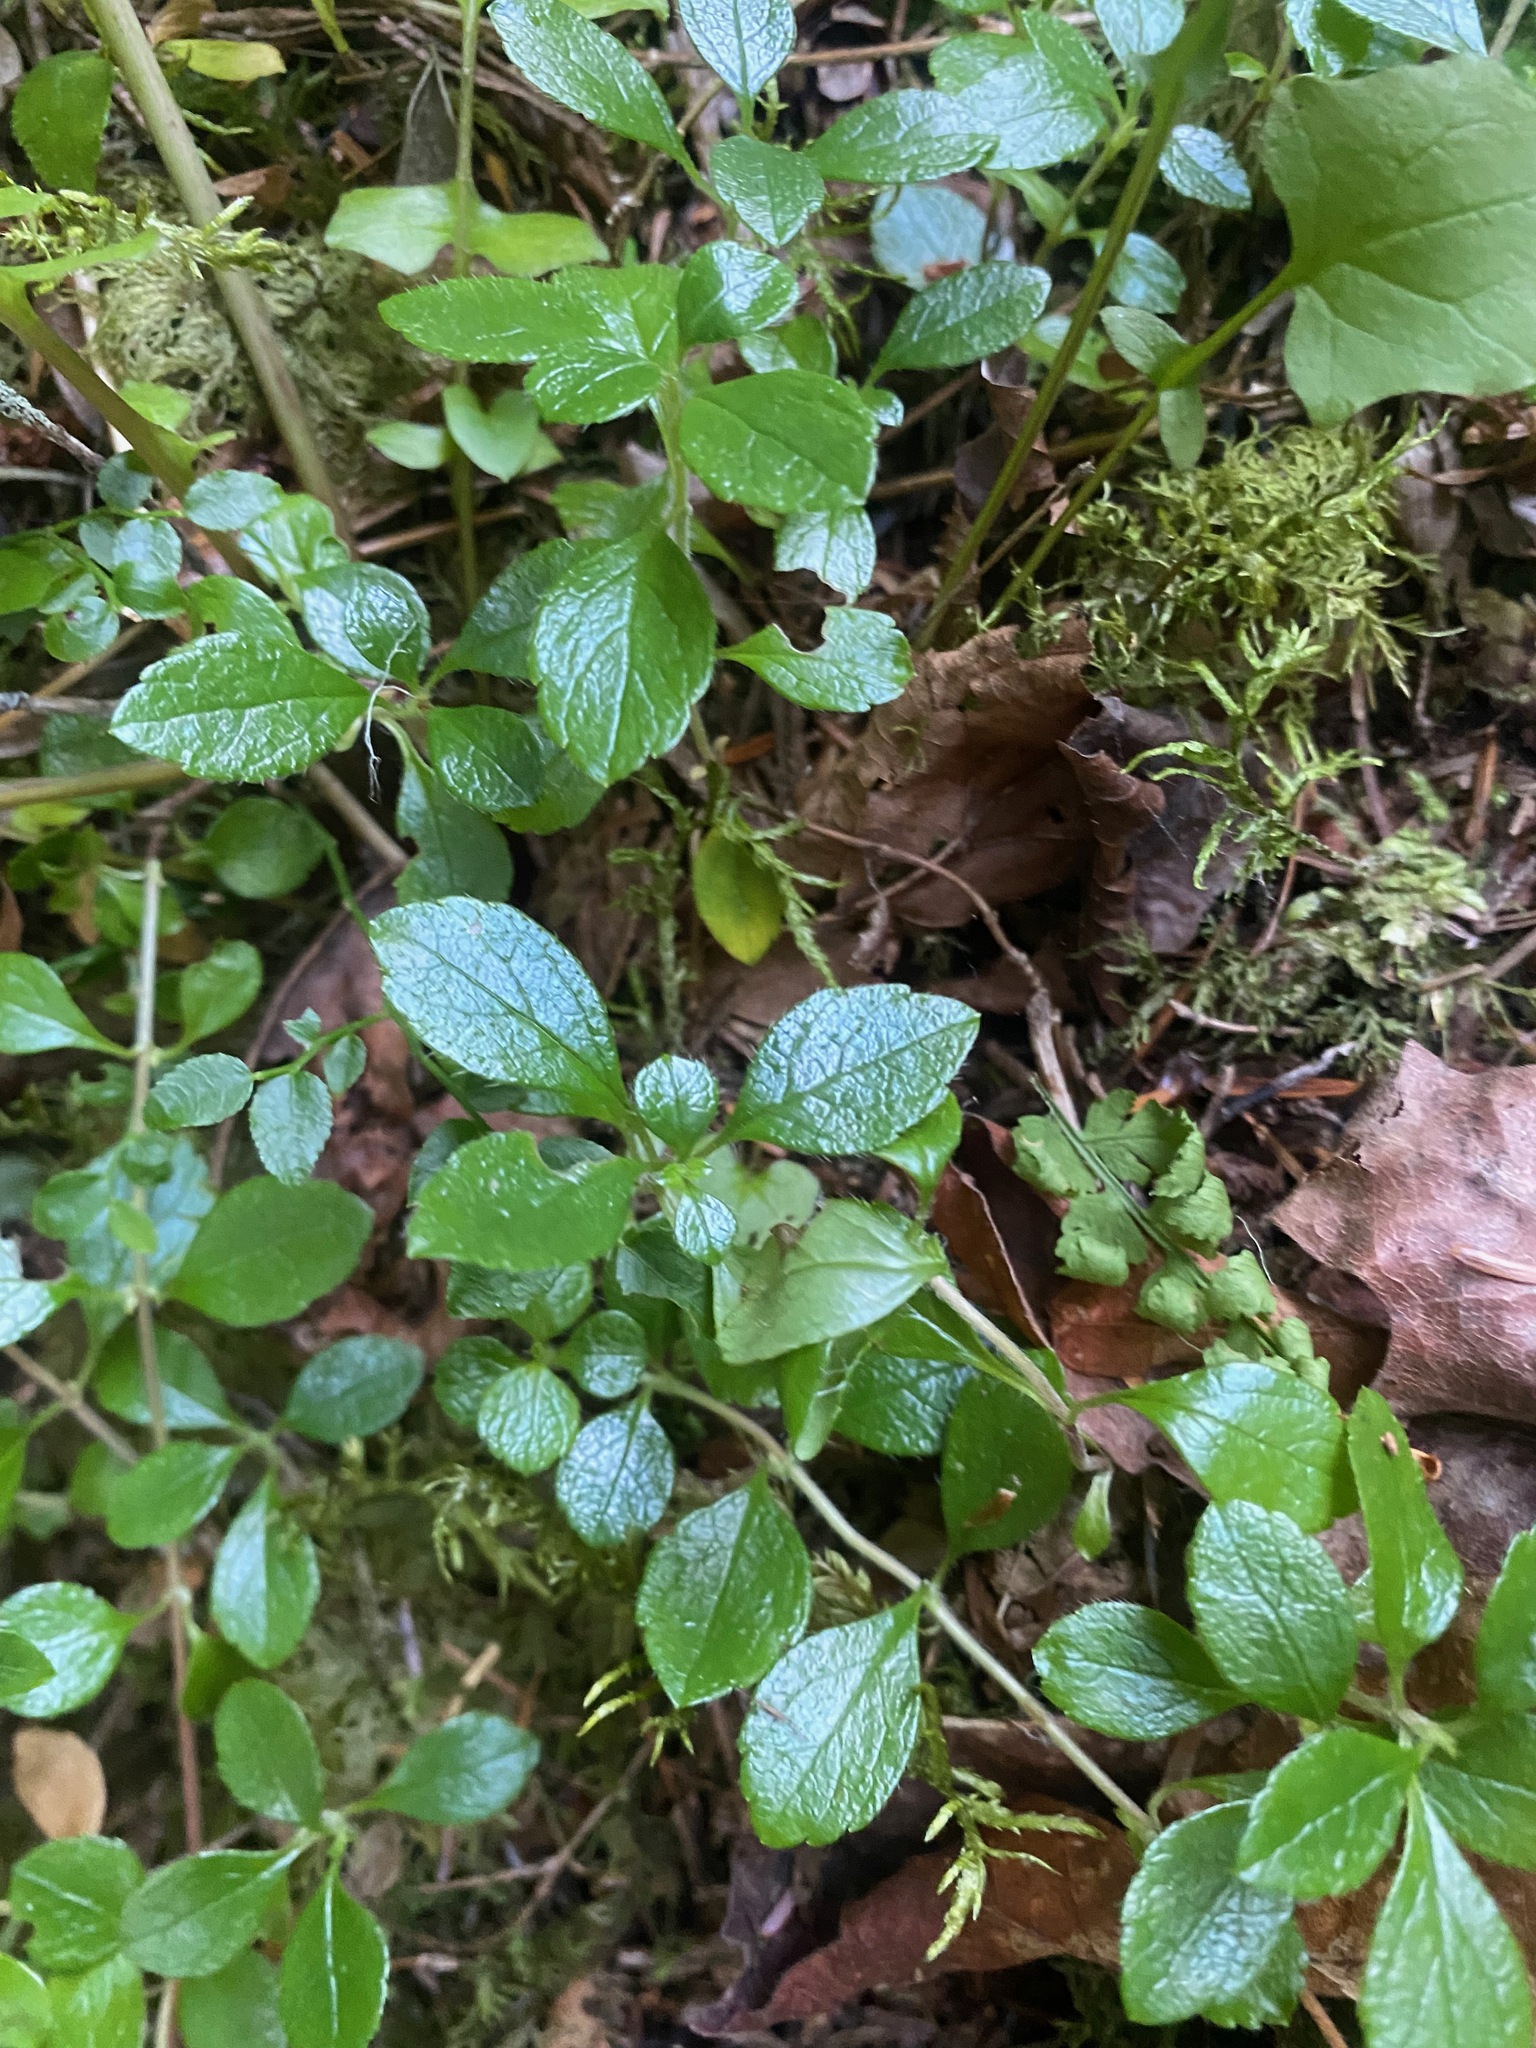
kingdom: Plantae
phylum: Tracheophyta
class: Magnoliopsida
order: Dipsacales
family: Caprifoliaceae
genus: Linnaea
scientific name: Linnaea borealis
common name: Twinflower
